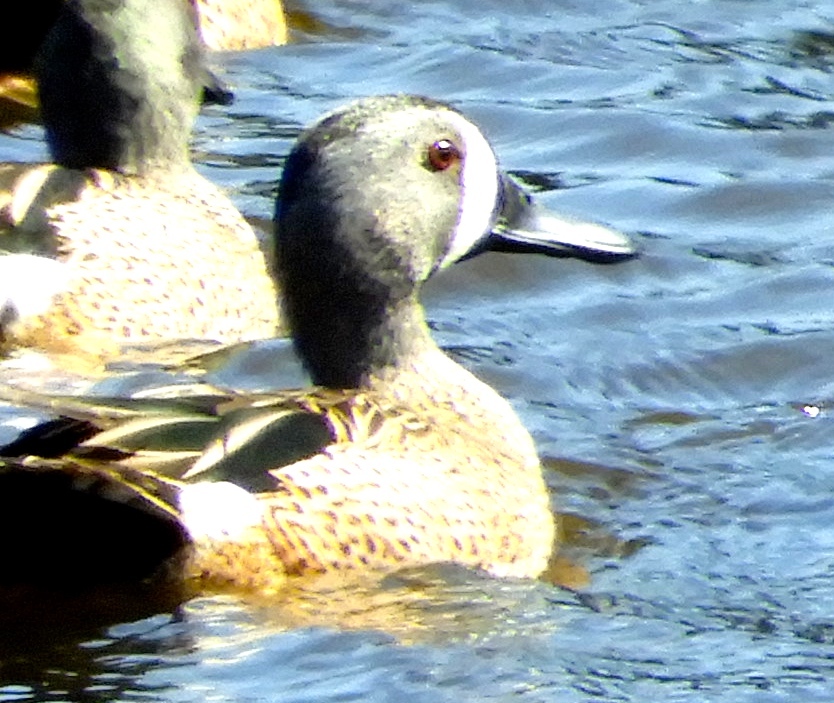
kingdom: Animalia
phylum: Chordata
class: Aves
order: Anseriformes
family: Anatidae
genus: Spatula
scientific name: Spatula discors
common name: Blue-winged teal
